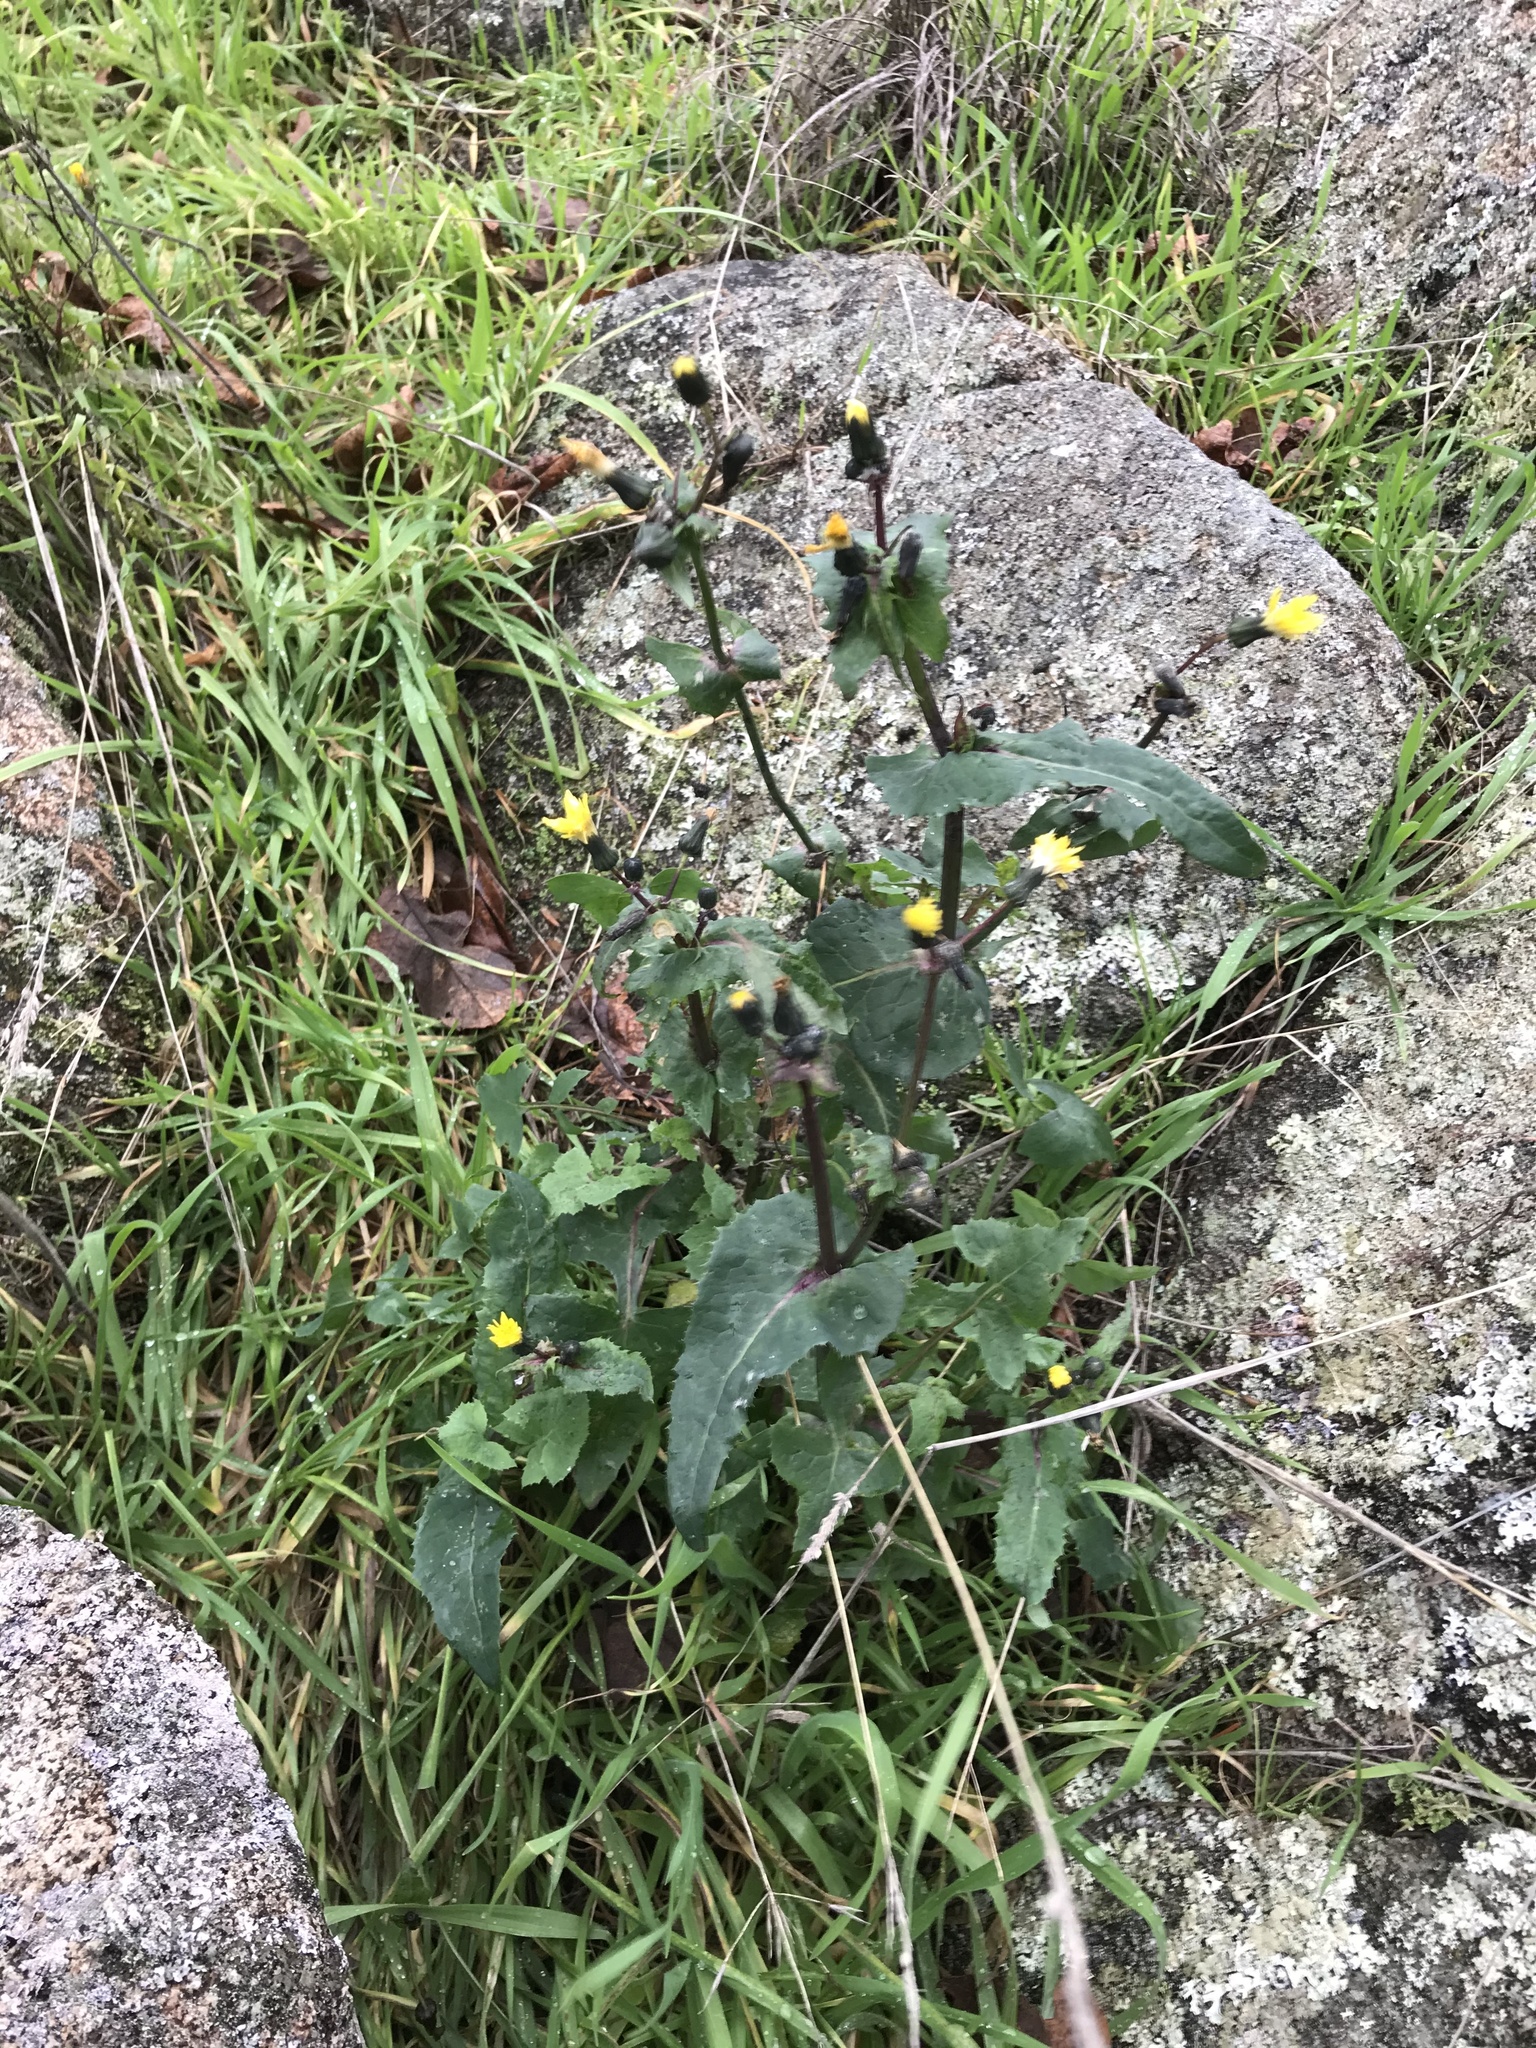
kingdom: Plantae
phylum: Tracheophyta
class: Magnoliopsida
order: Asterales
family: Asteraceae
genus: Sonchus
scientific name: Sonchus oleraceus
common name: Common sowthistle
